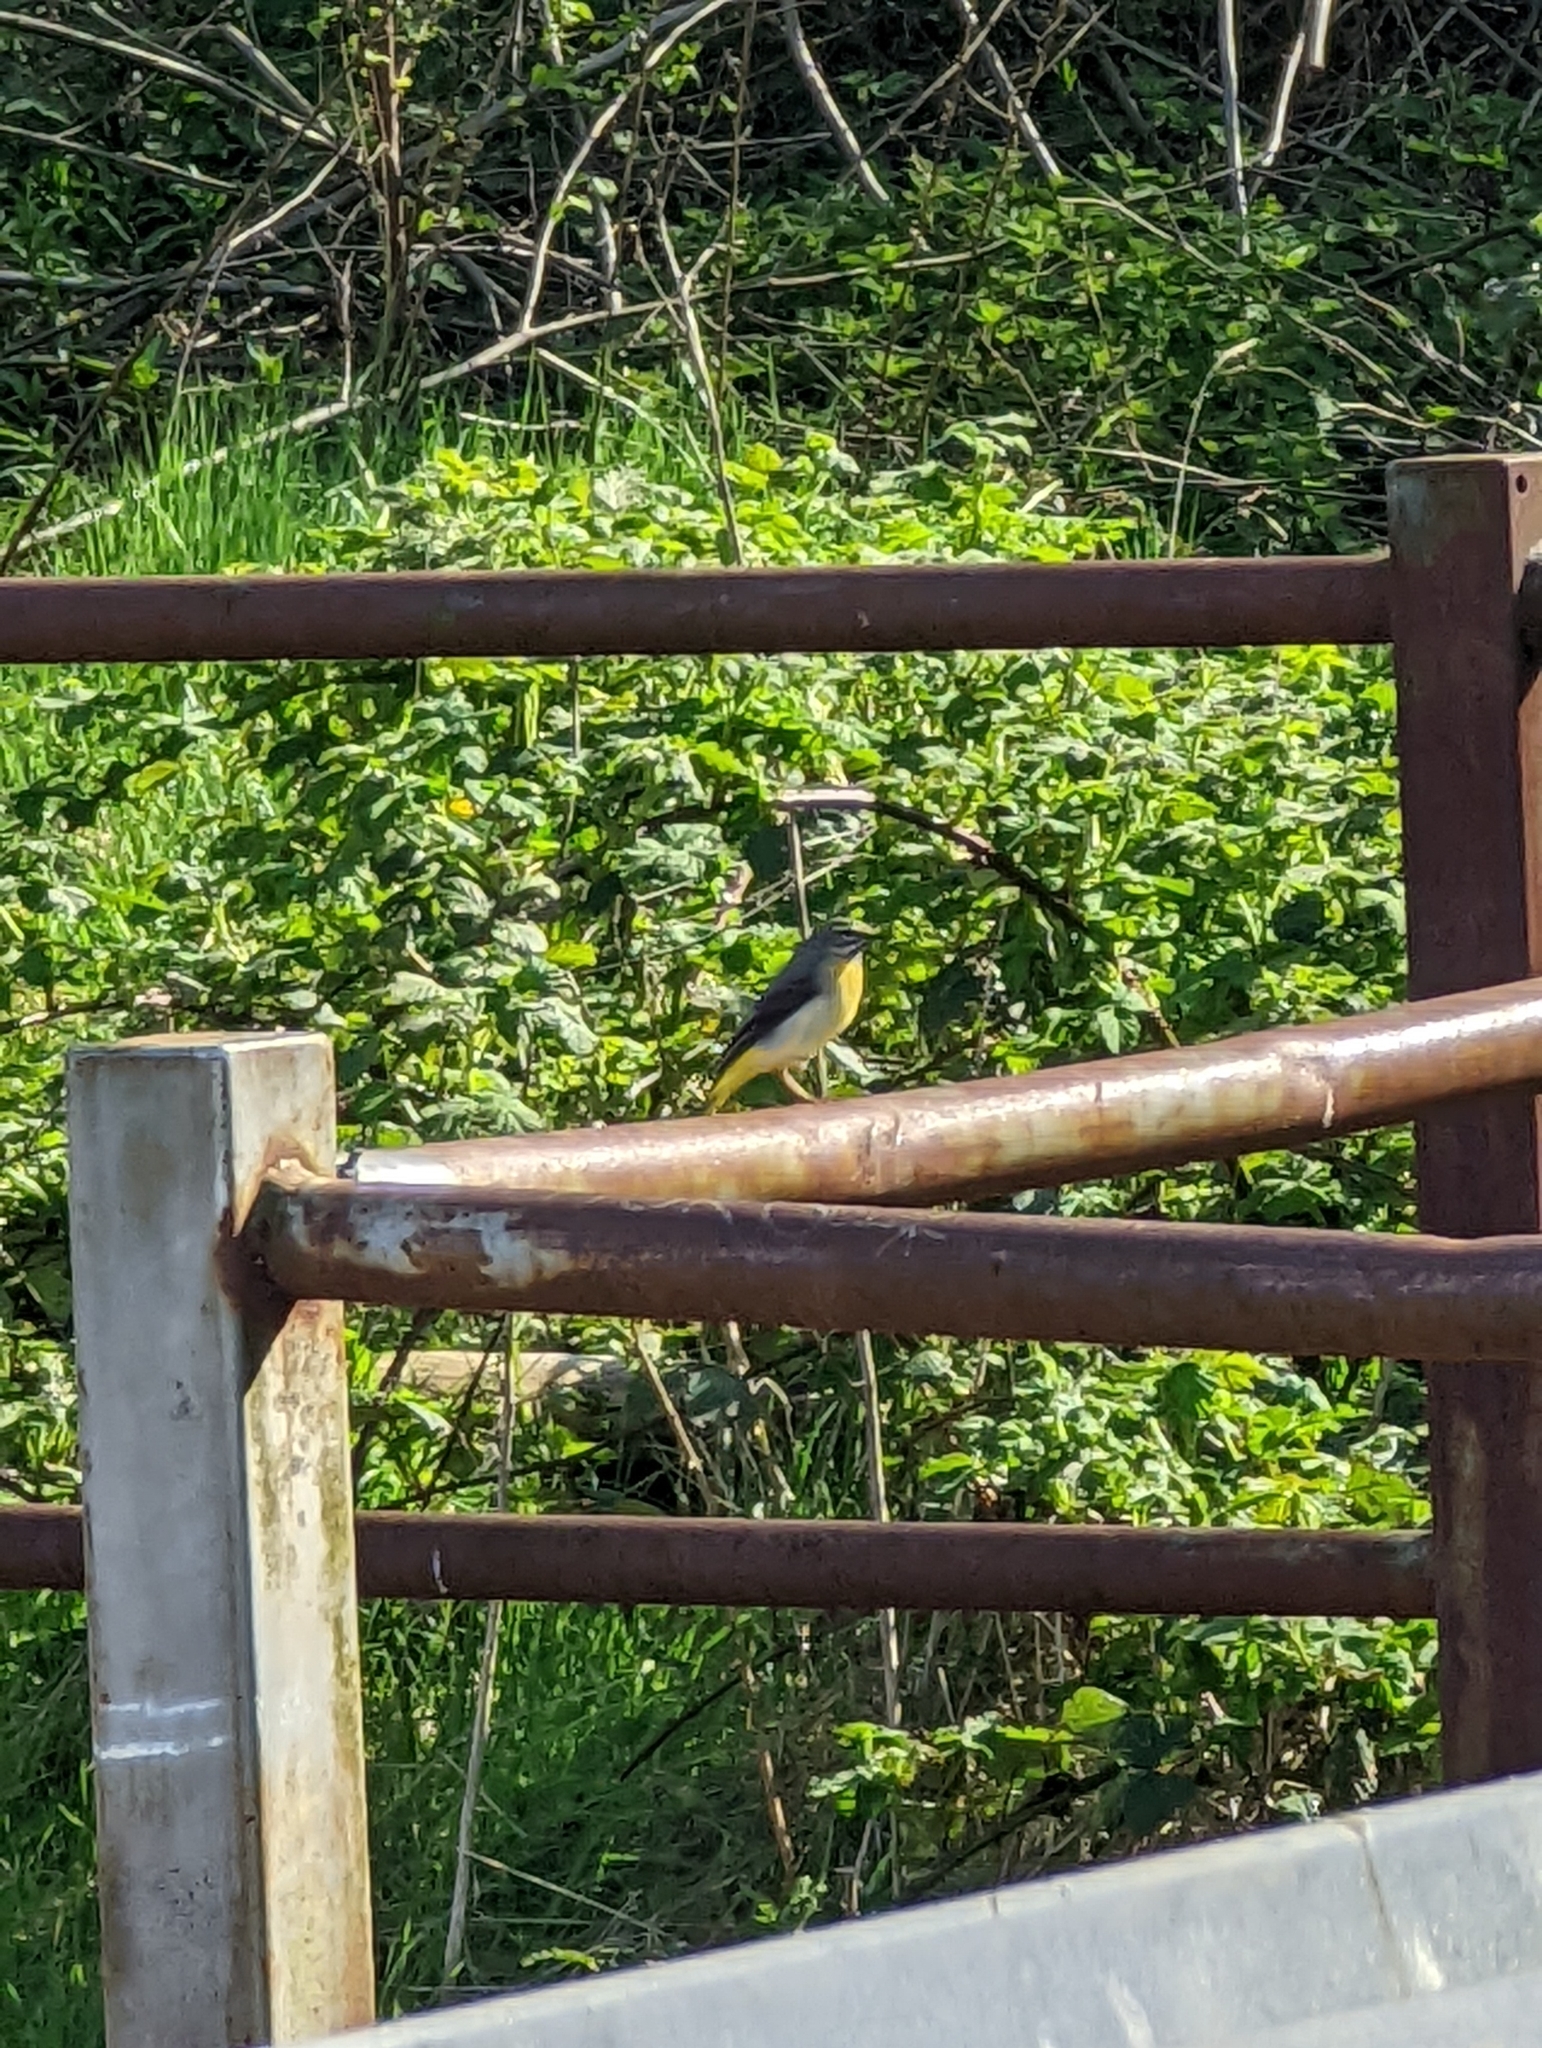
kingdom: Animalia
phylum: Chordata
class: Aves
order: Passeriformes
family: Motacillidae
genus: Motacilla
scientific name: Motacilla cinerea
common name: Grey wagtail
